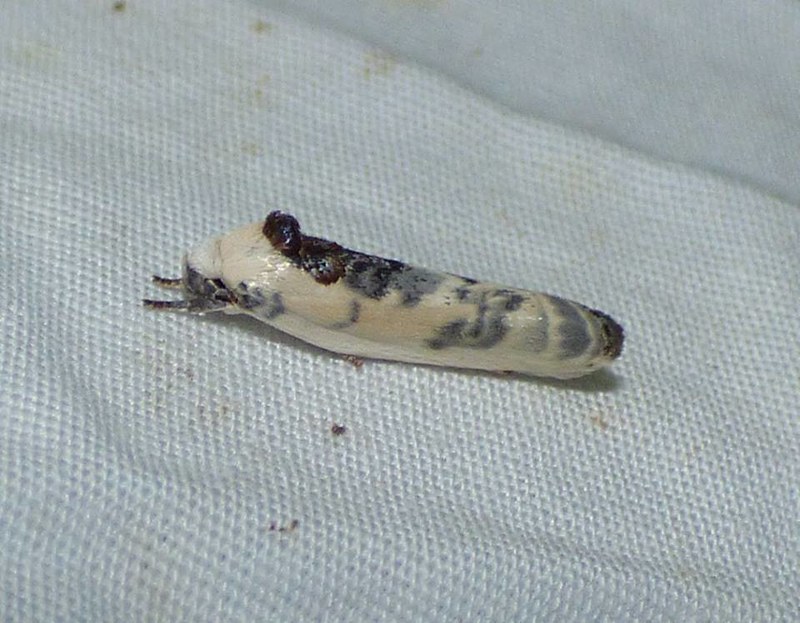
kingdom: Animalia
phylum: Arthropoda
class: Insecta
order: Lepidoptera
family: Depressariidae
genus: Antaeotricha
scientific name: Antaeotricha schlaegeri
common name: Schlaeger's fruitworm moth
